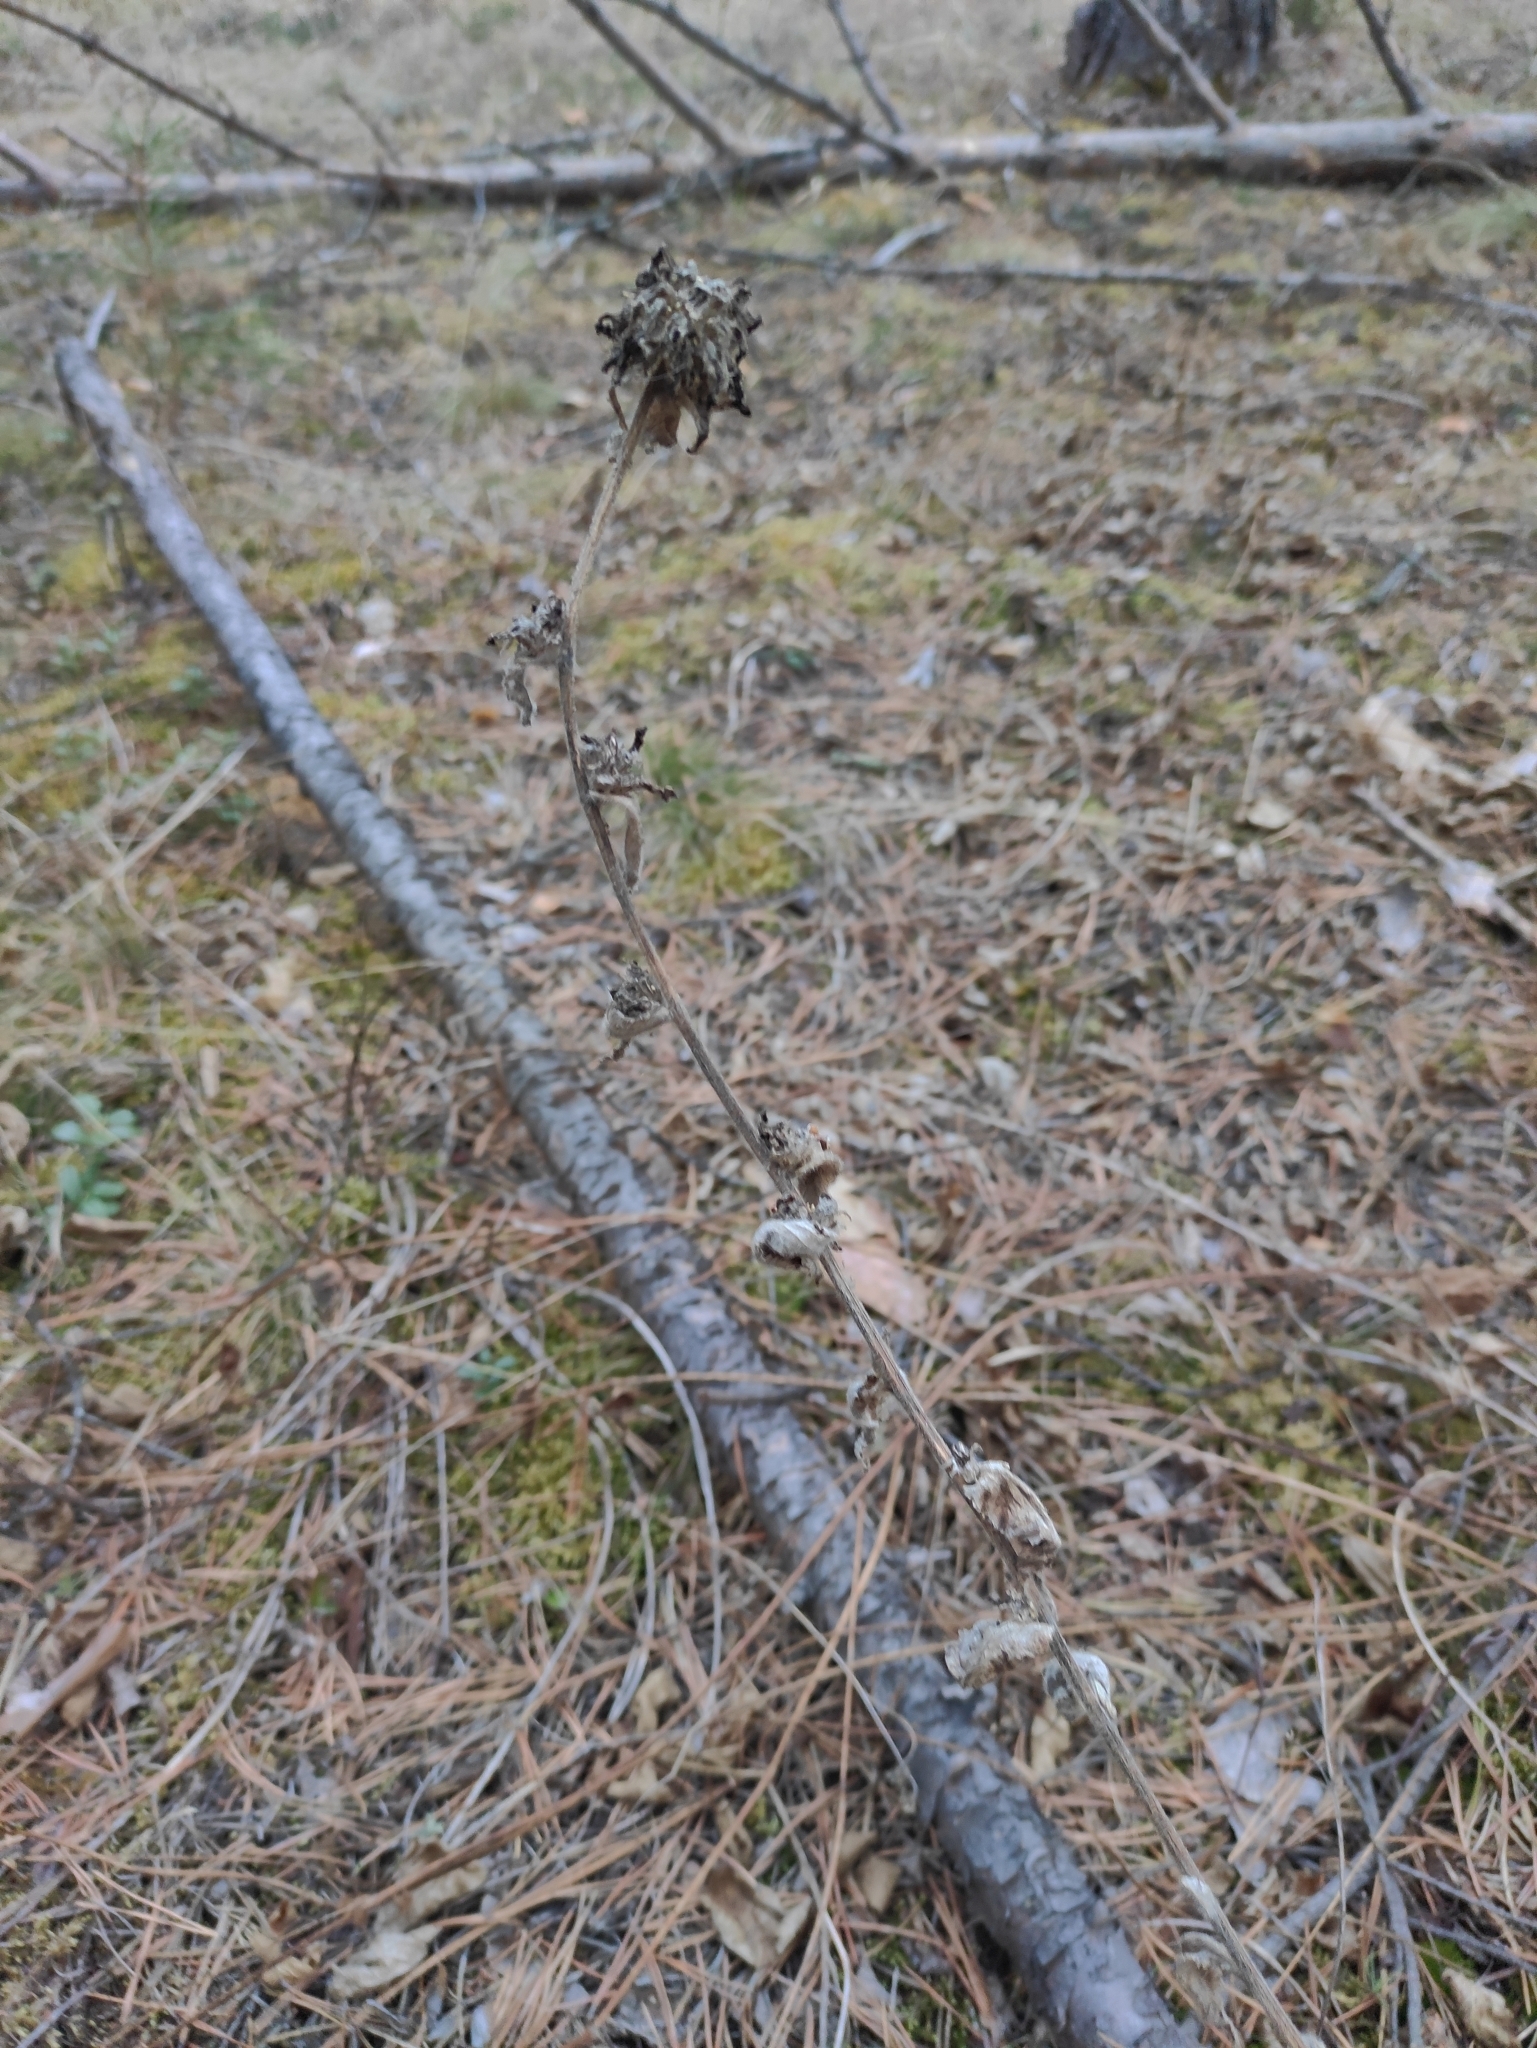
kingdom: Plantae
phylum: Tracheophyta
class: Magnoliopsida
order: Asterales
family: Campanulaceae
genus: Campanula
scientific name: Campanula glomerata
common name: Clustered bellflower
